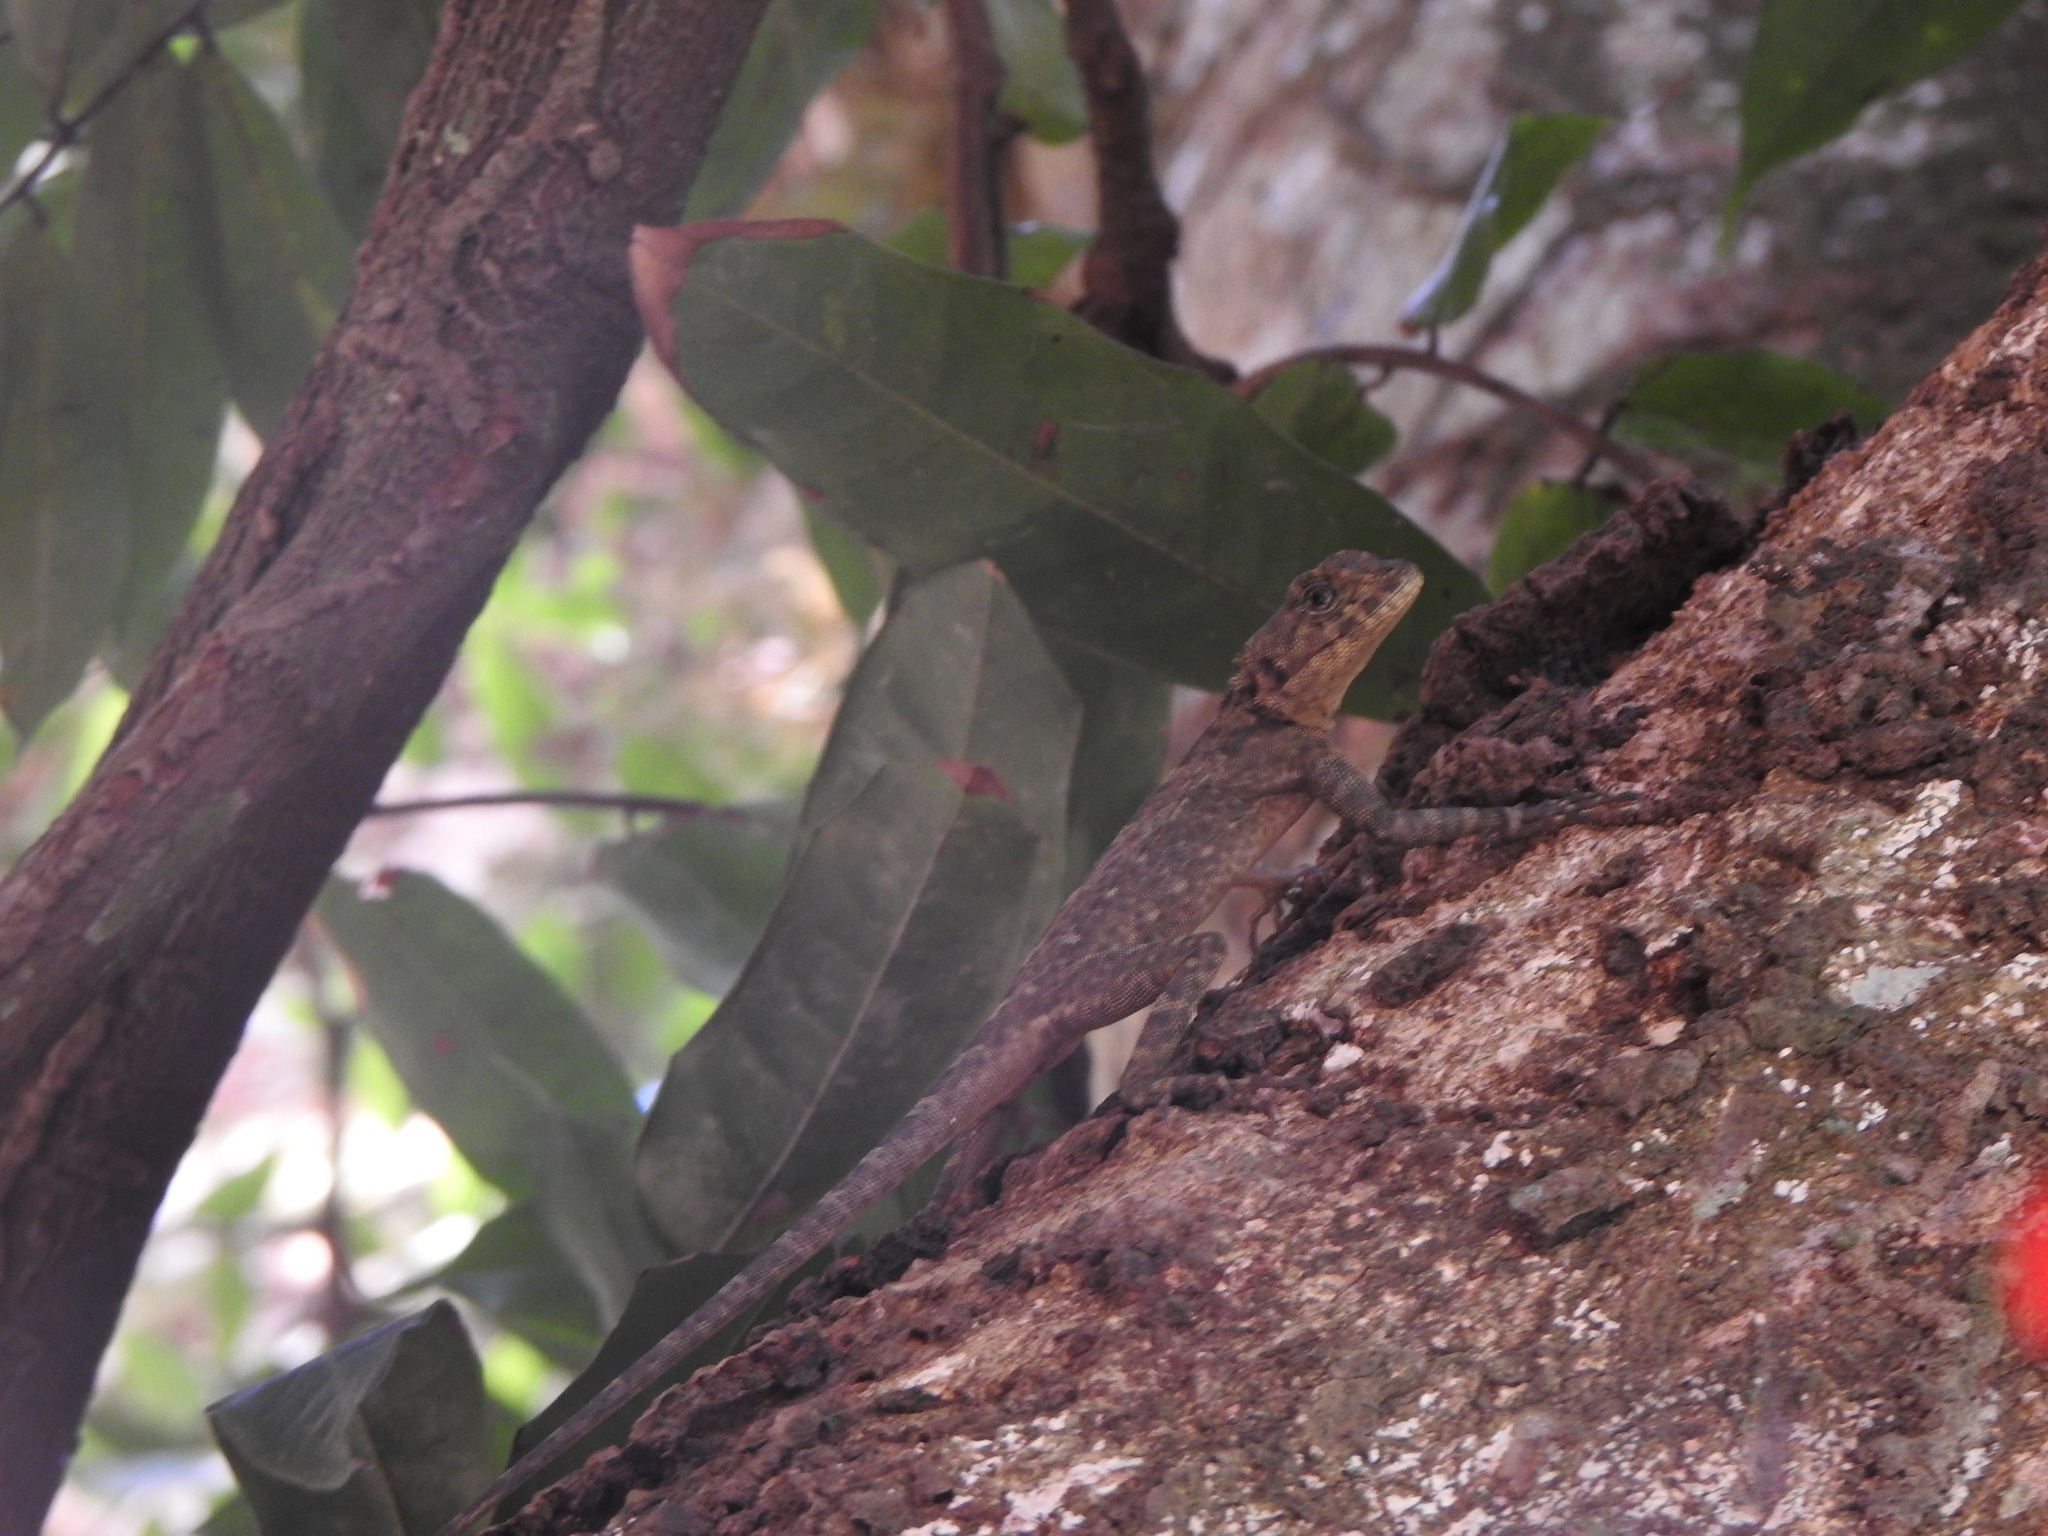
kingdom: Animalia
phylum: Chordata
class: Squamata
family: Tropiduridae
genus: Plica
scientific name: Plica plica
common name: Tree runner
